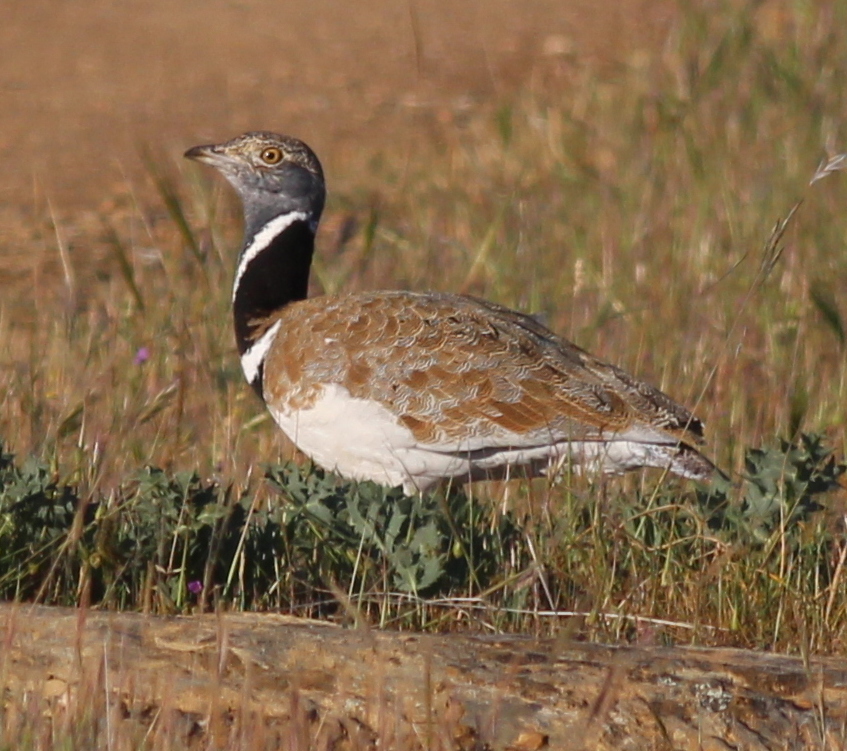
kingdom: Animalia
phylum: Chordata
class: Aves
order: Otidiformes
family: Otididae
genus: Tetrax
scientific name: Tetrax tetrax
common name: Little bustard
